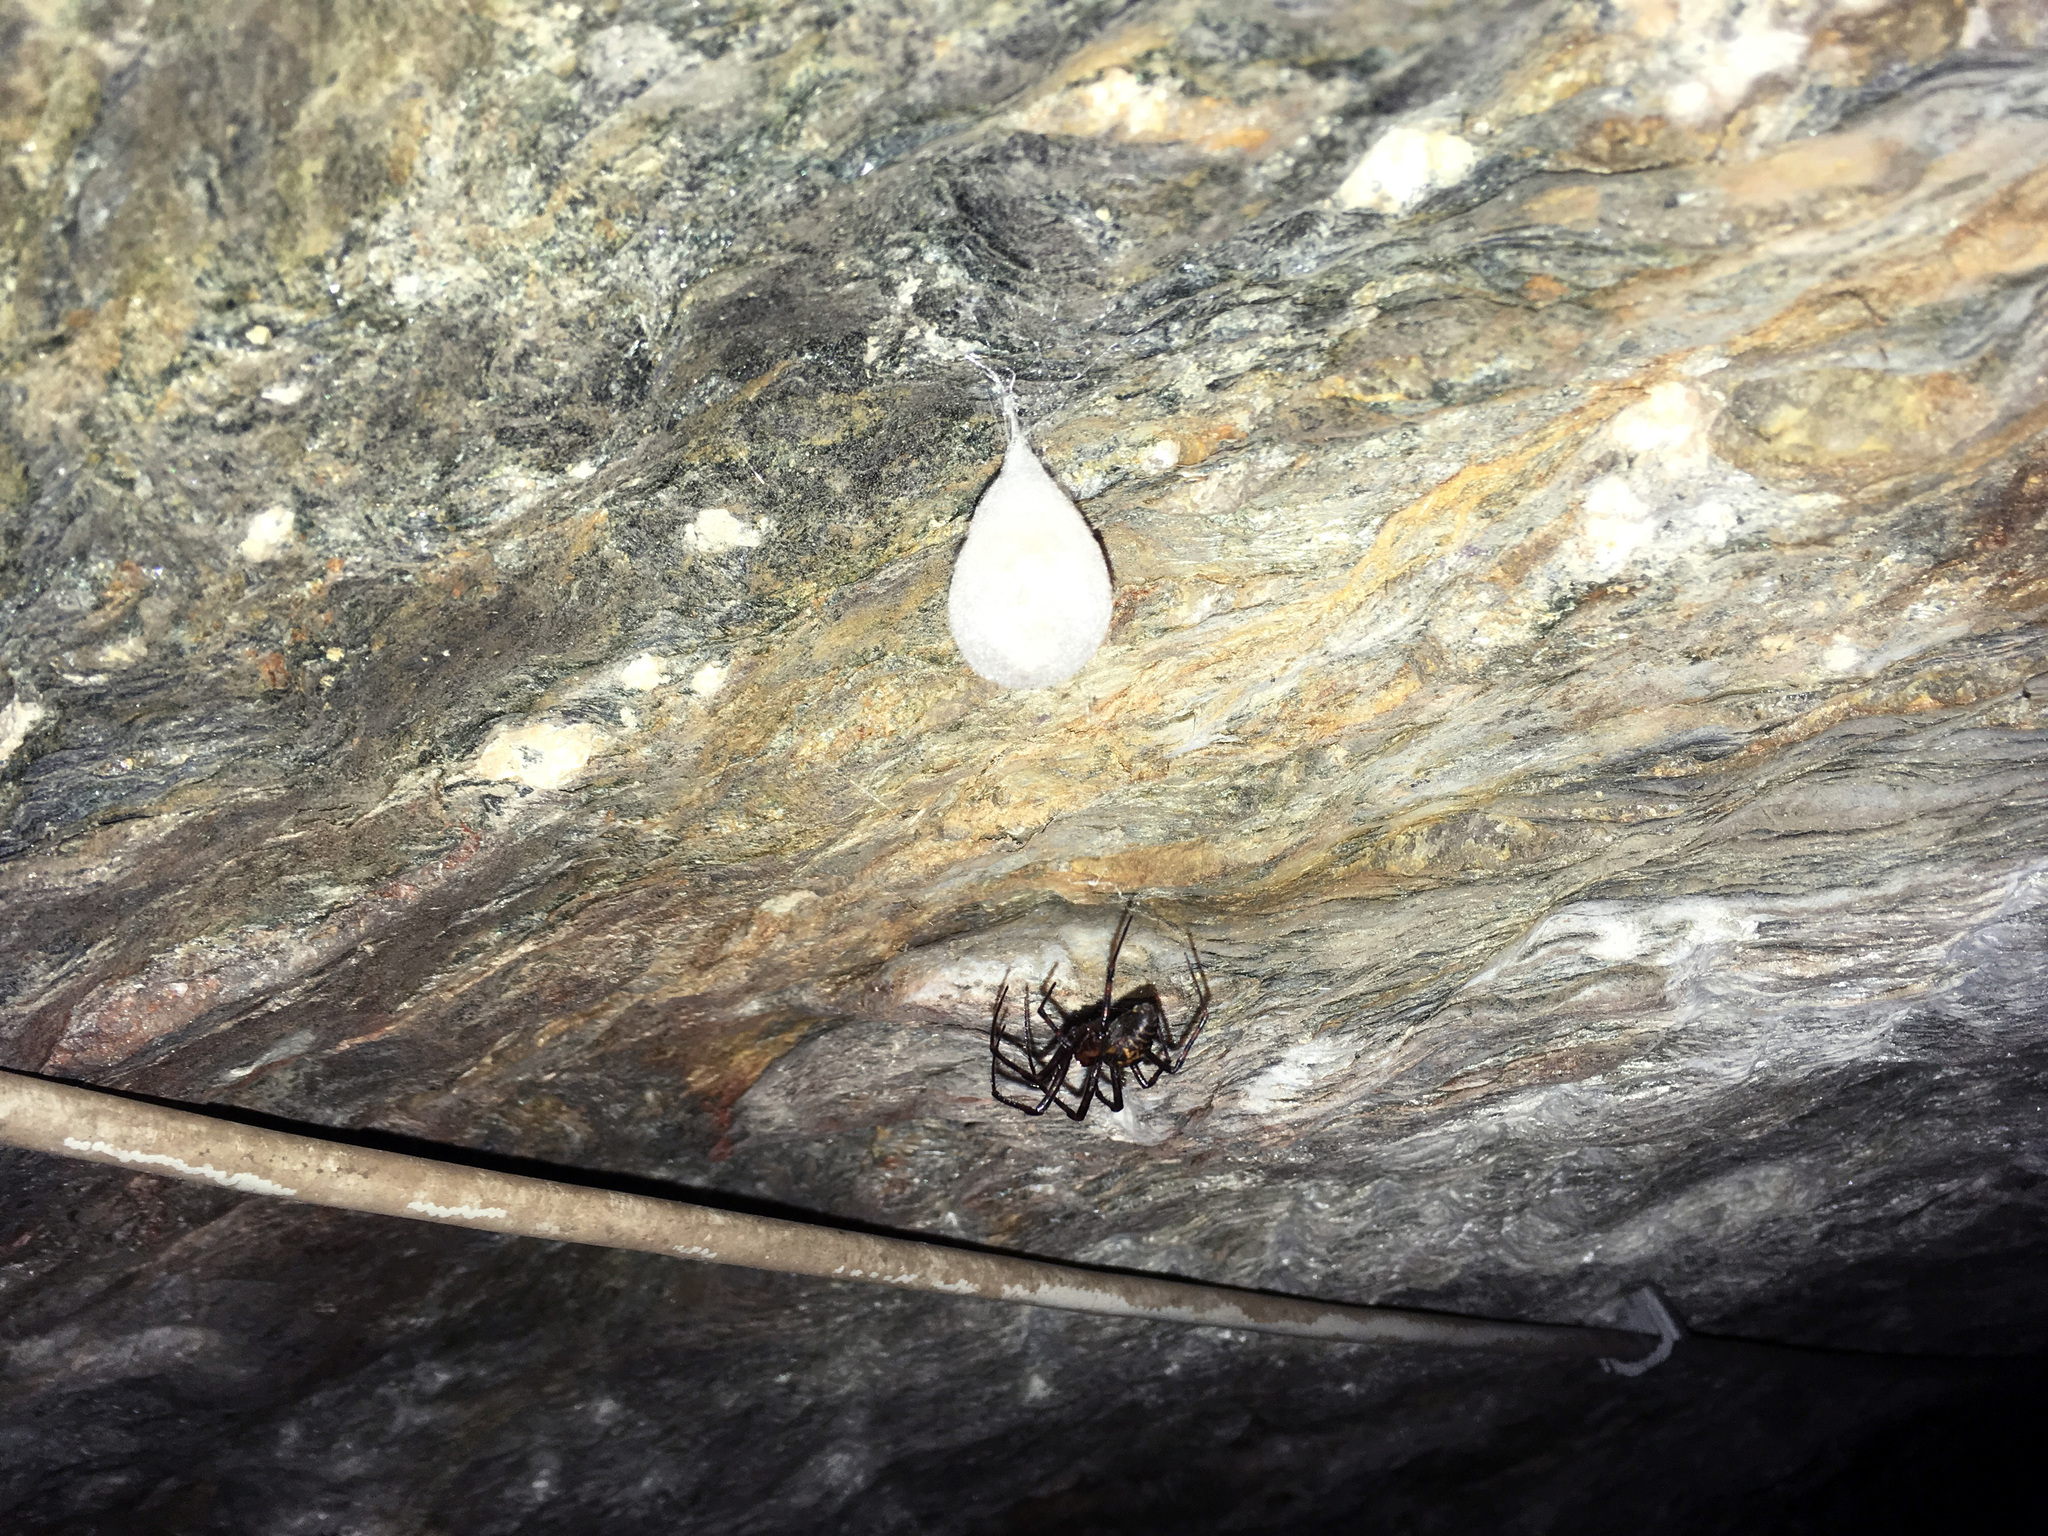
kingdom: Animalia
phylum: Arthropoda
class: Arachnida
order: Araneae
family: Tetragnathidae
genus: Meta
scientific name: Meta menardi
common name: Cave spider
